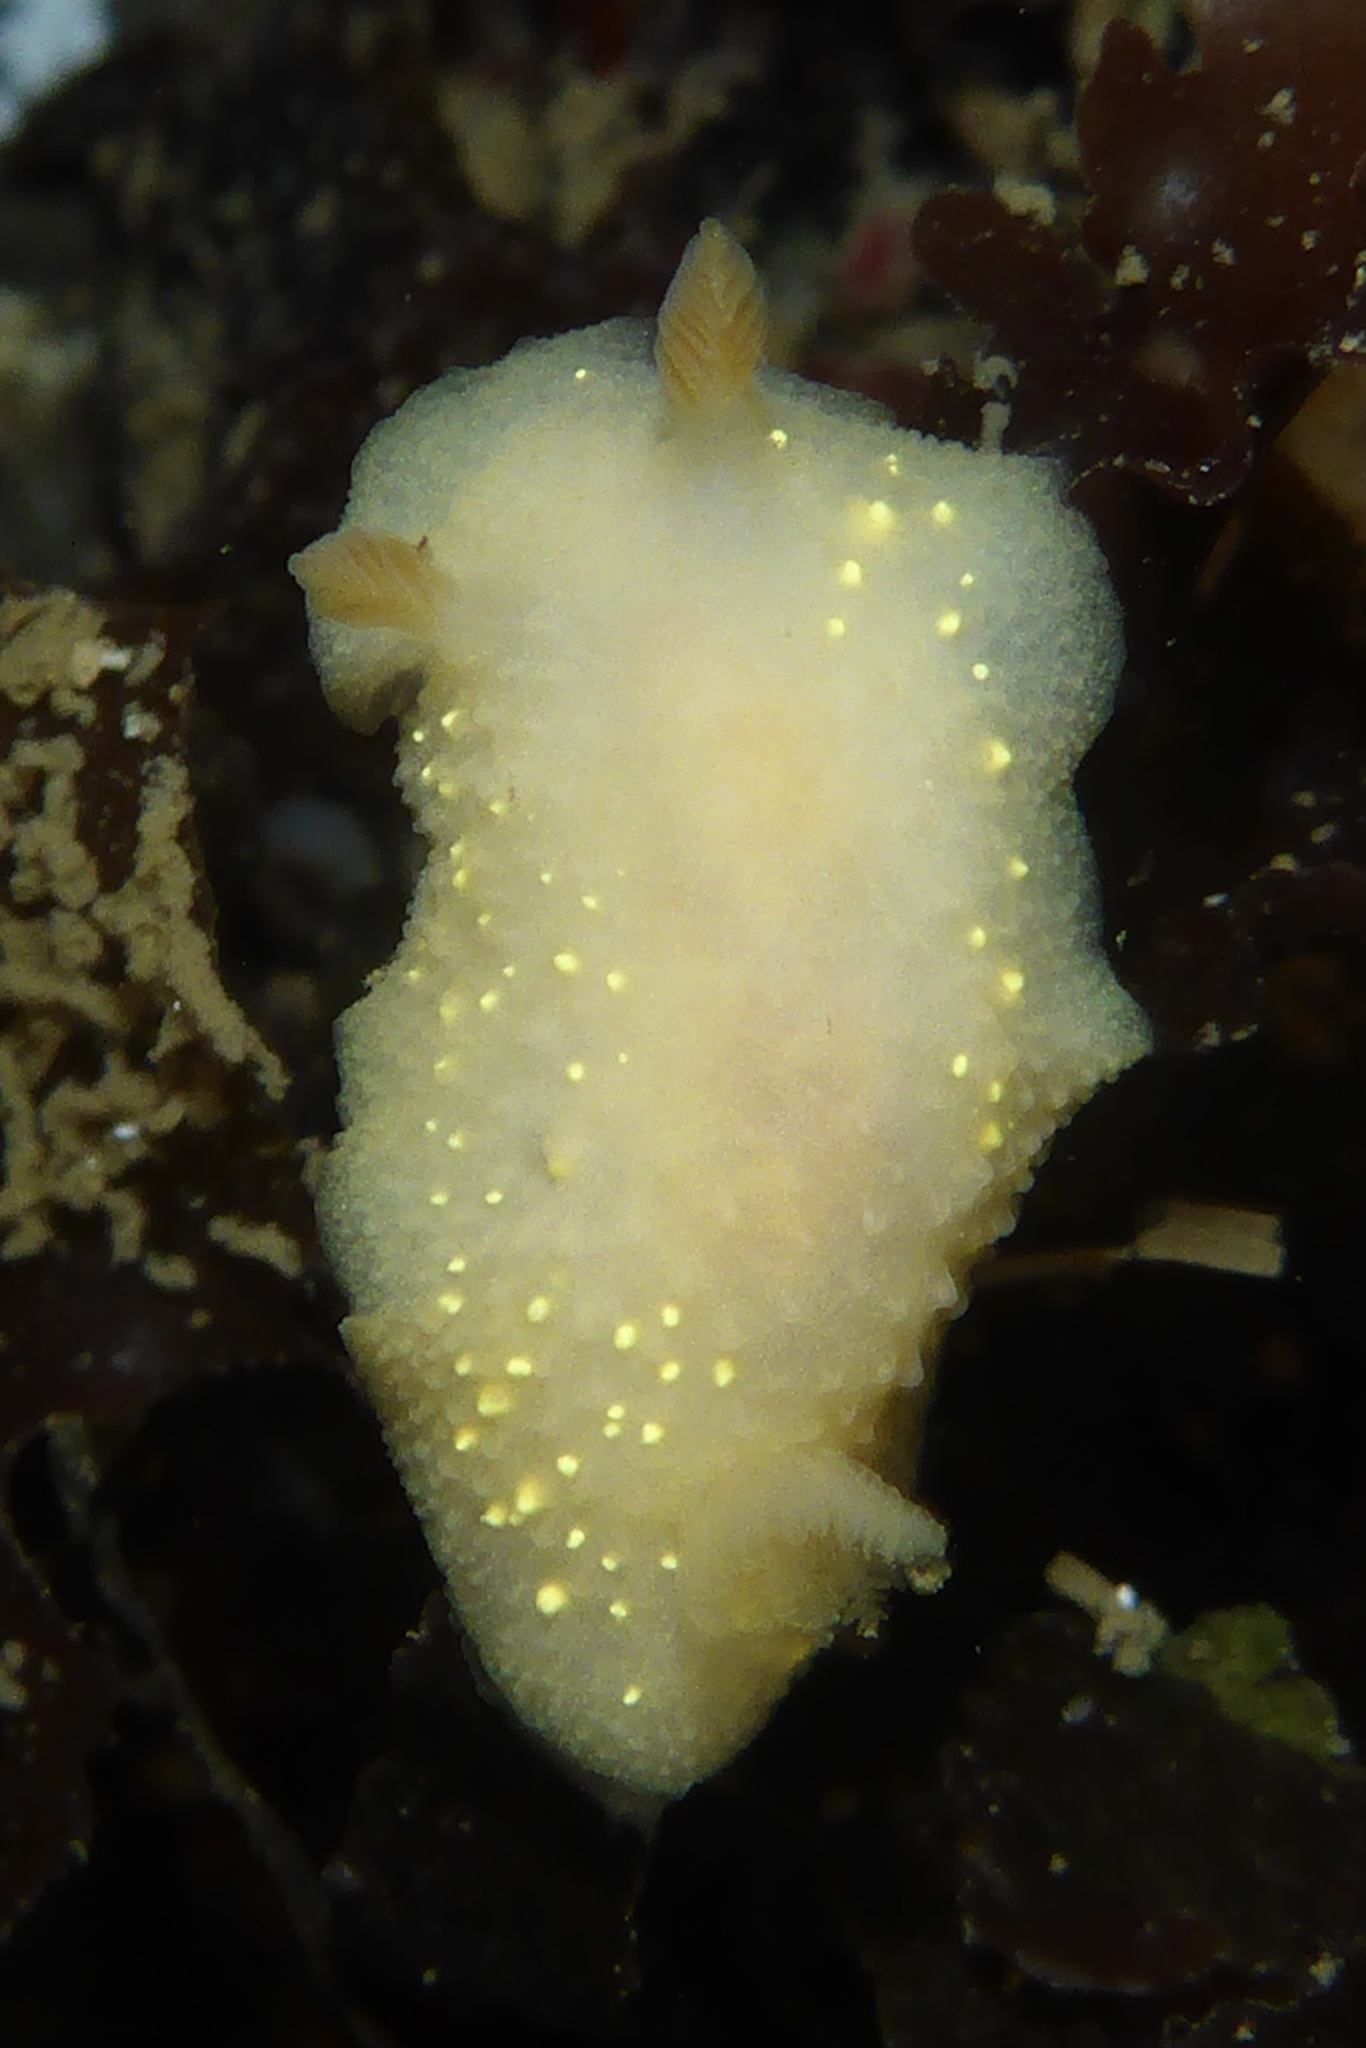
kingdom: Animalia
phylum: Mollusca
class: Gastropoda
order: Nudibranchia
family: Cadlinidae
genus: Cadlina
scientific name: Cadlina modesta
